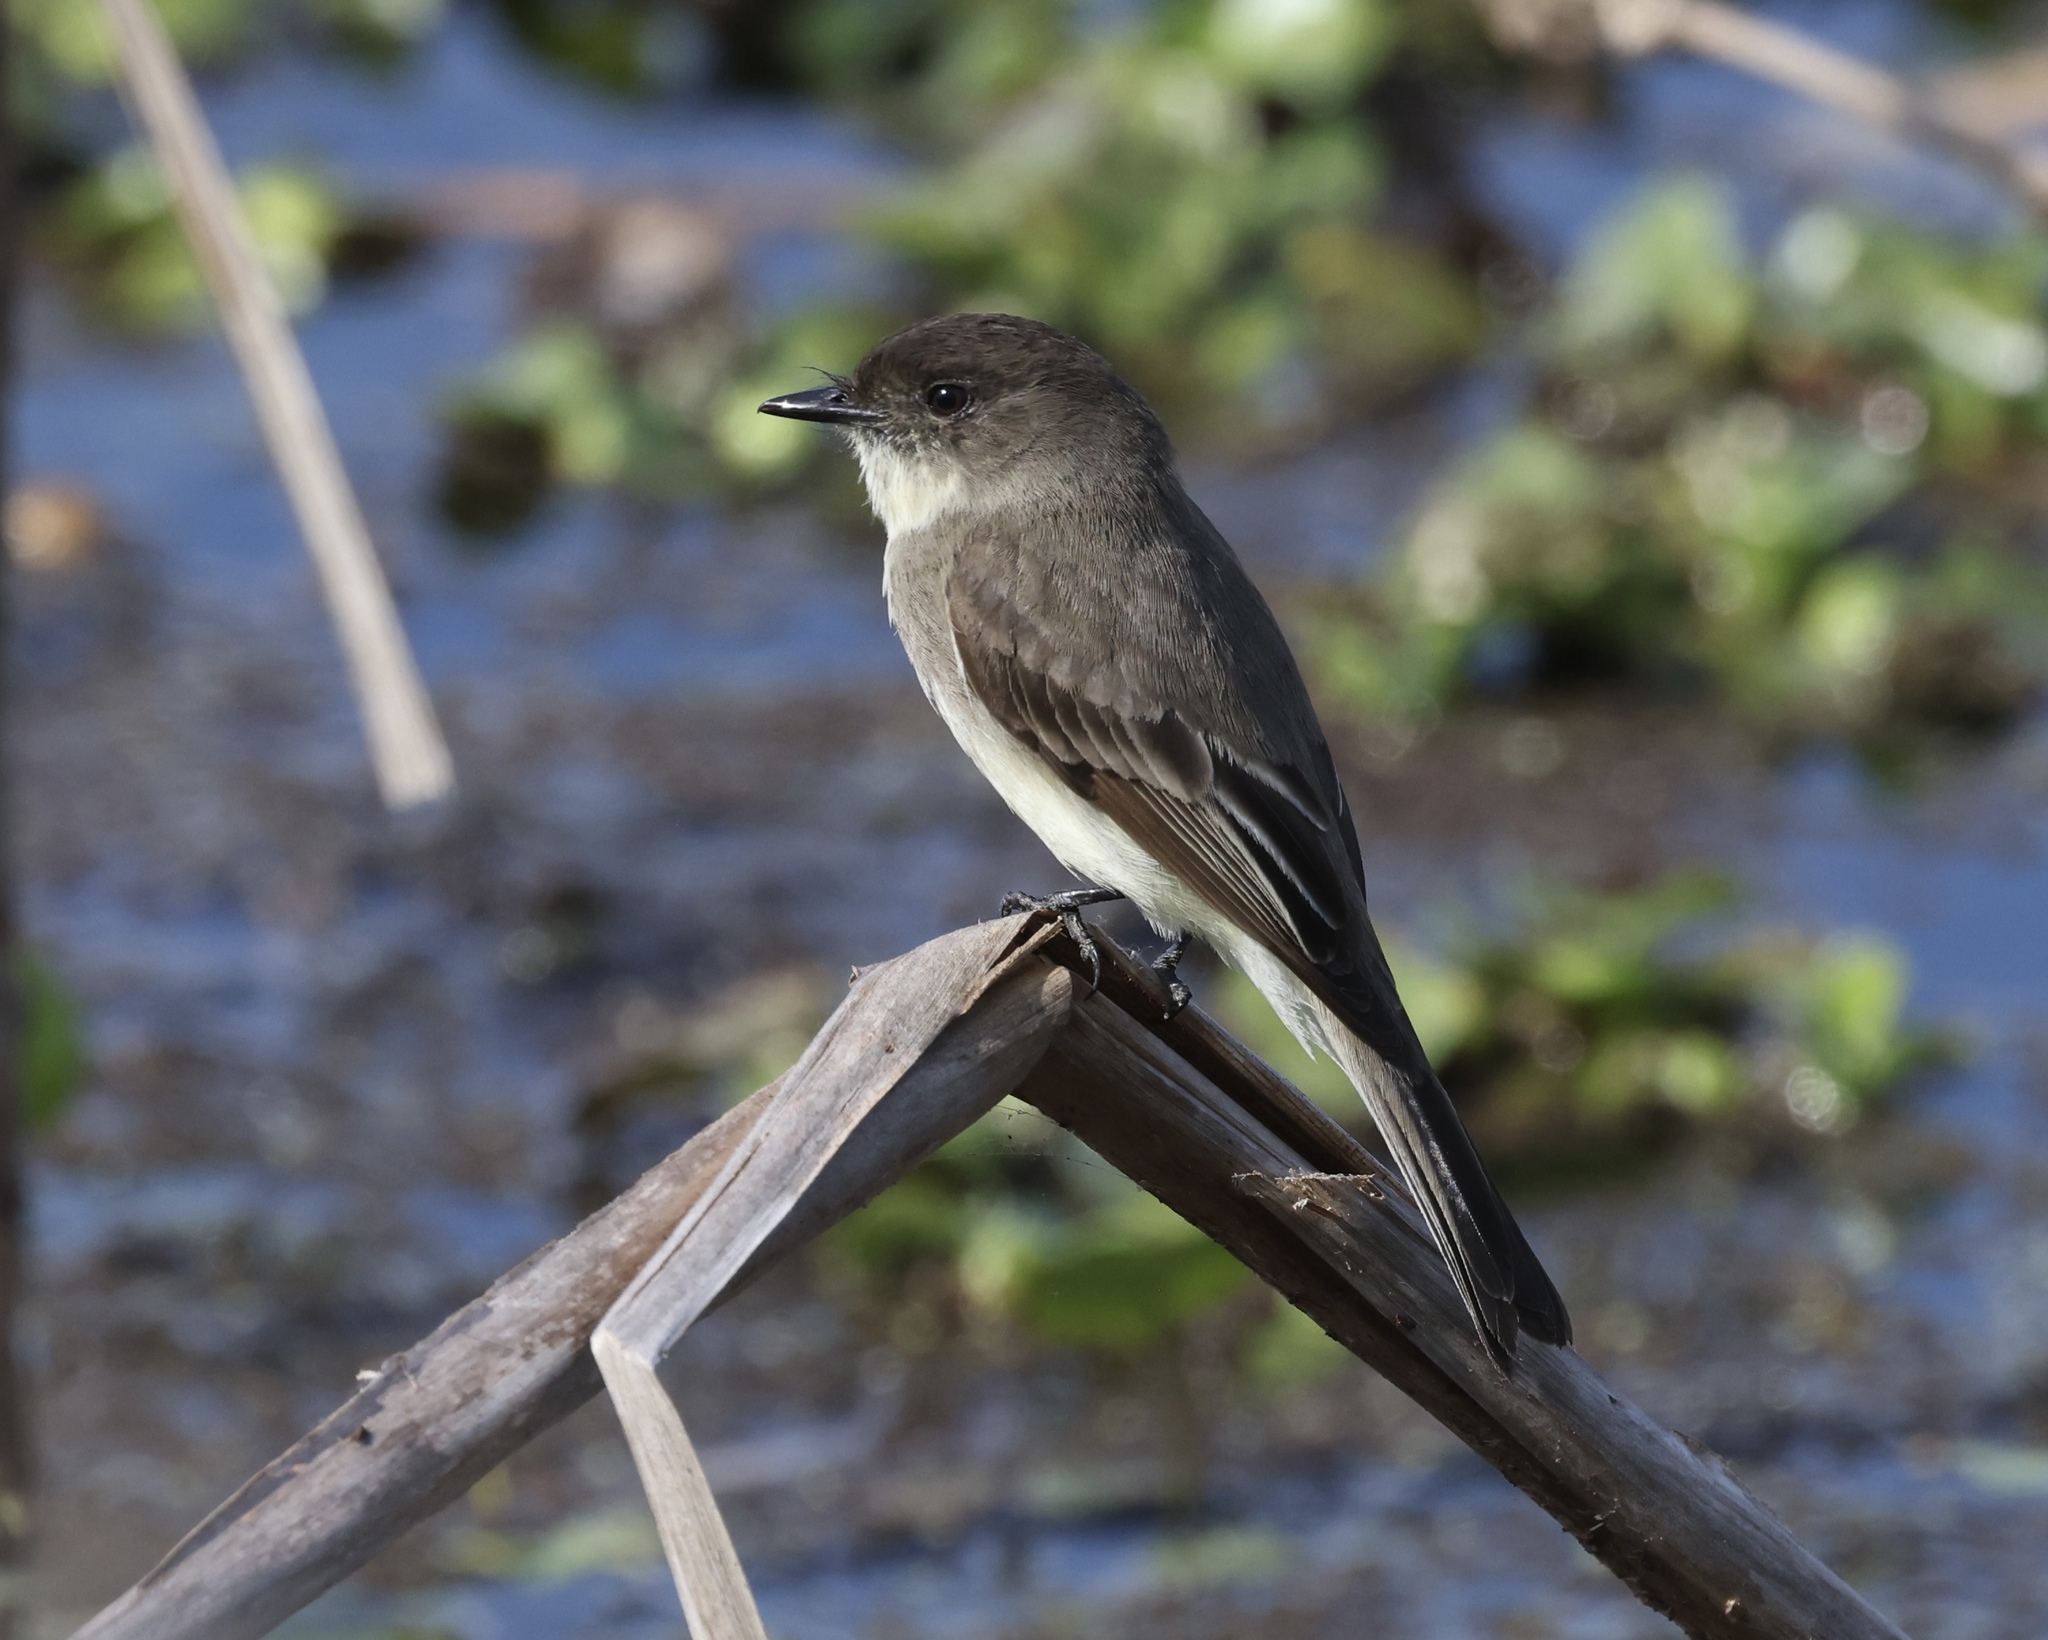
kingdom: Animalia
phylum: Chordata
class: Aves
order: Passeriformes
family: Tyrannidae
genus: Sayornis
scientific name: Sayornis phoebe
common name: Eastern phoebe
